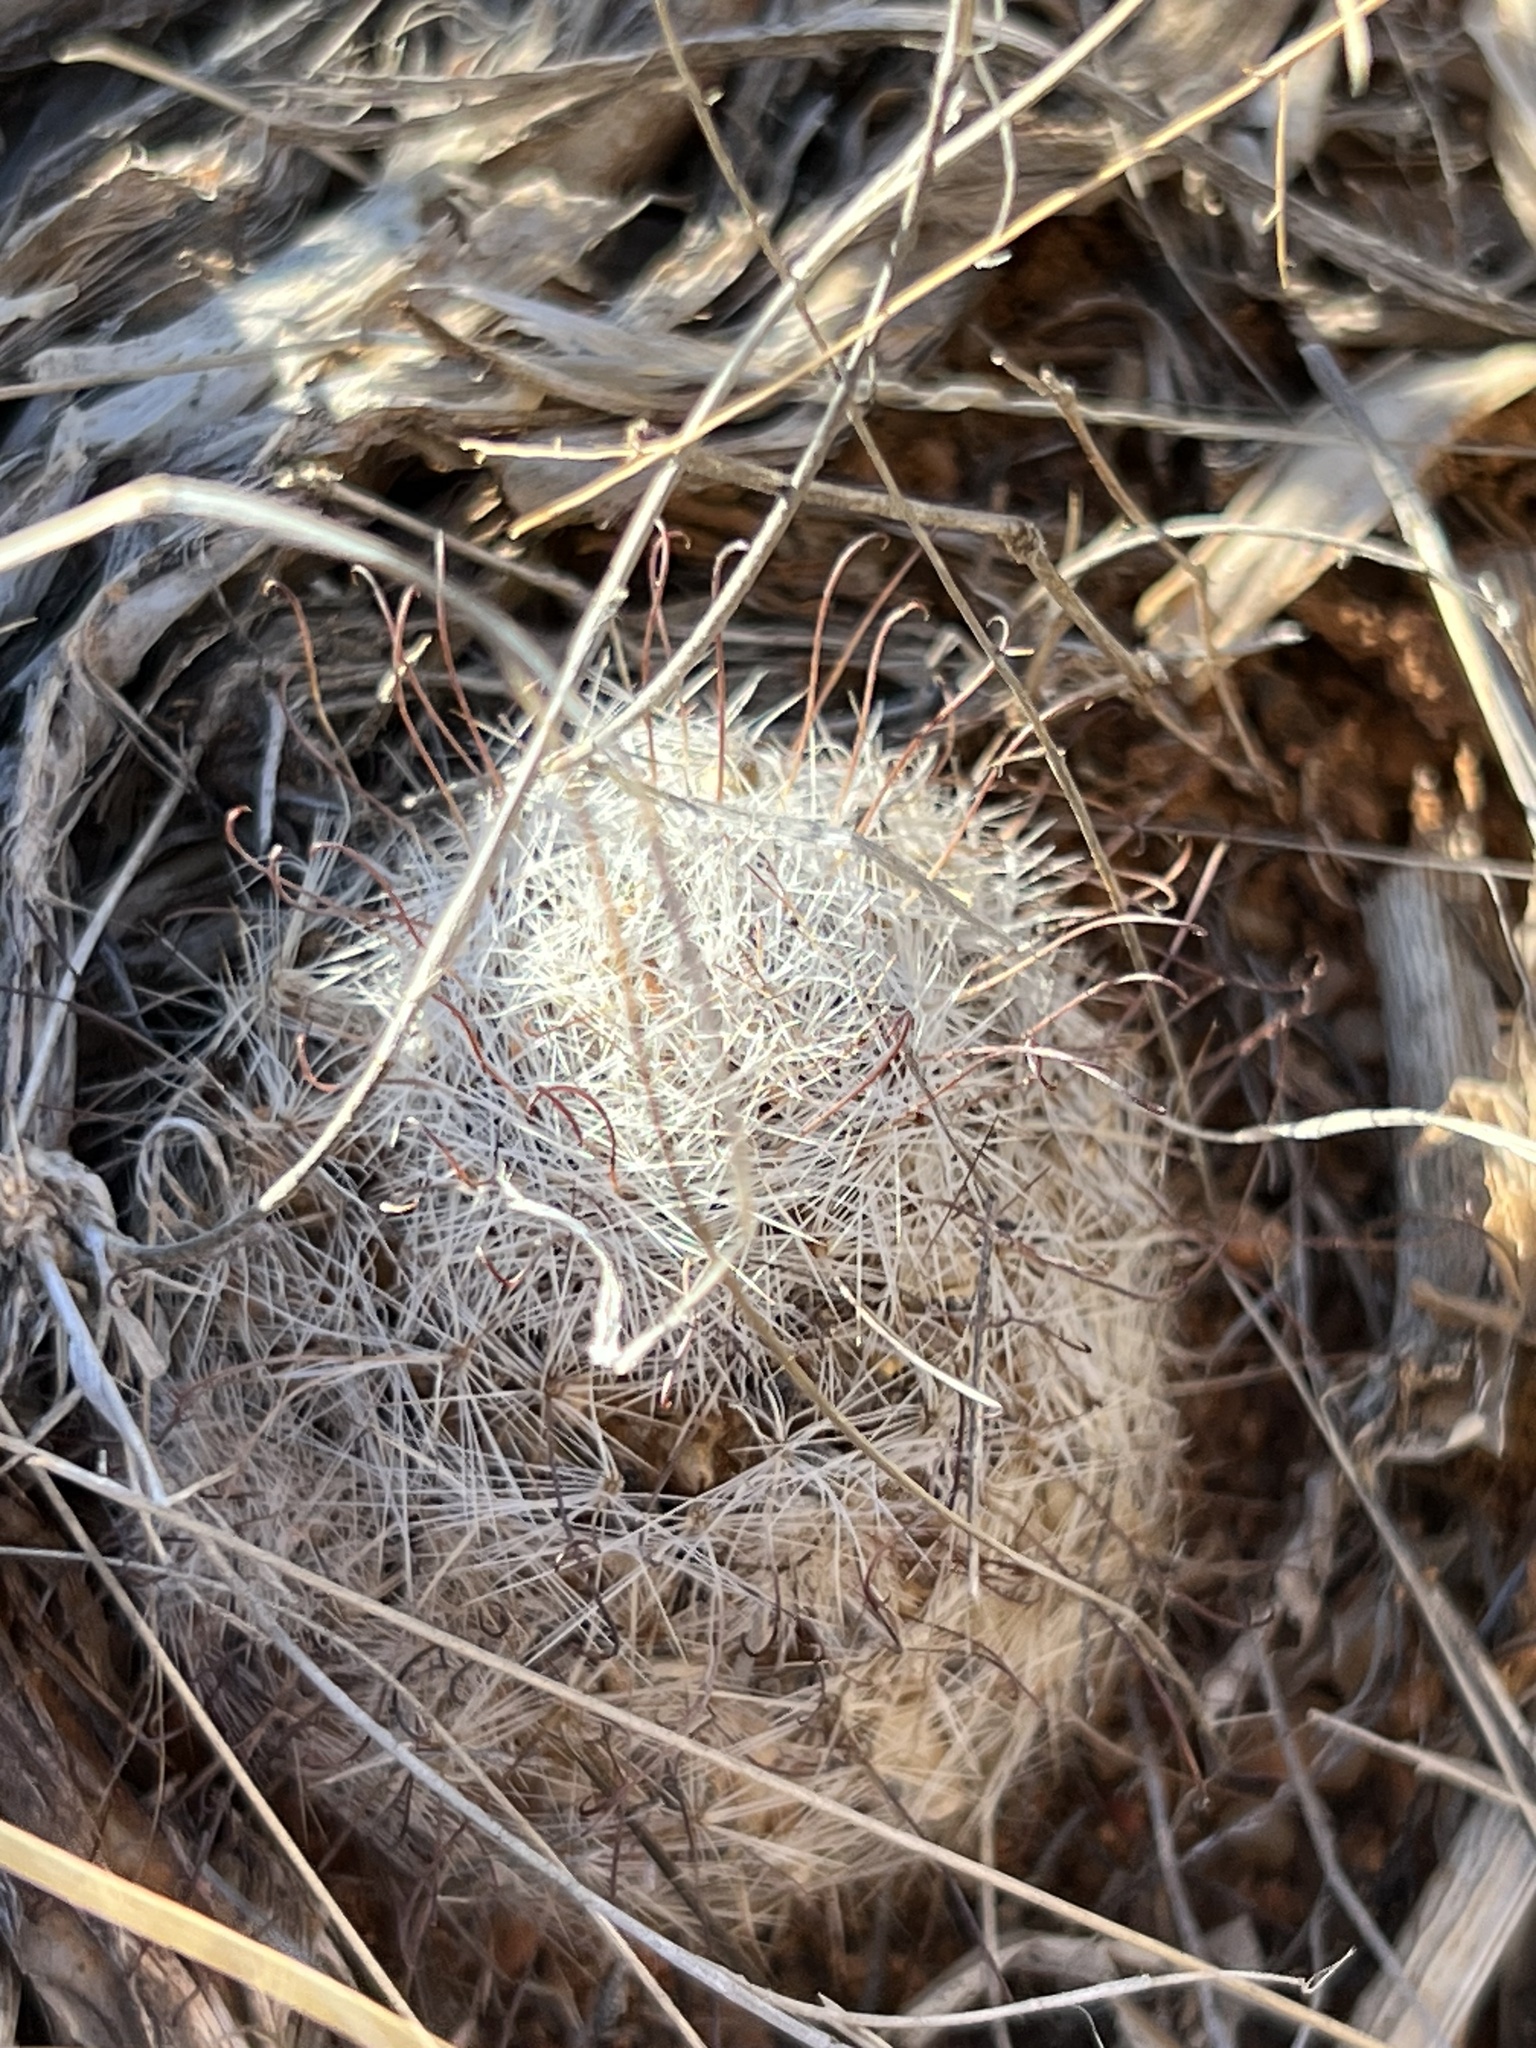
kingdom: Plantae
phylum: Tracheophyta
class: Magnoliopsida
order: Caryophyllales
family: Cactaceae
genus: Cochemiea
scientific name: Cochemiea grahamii
